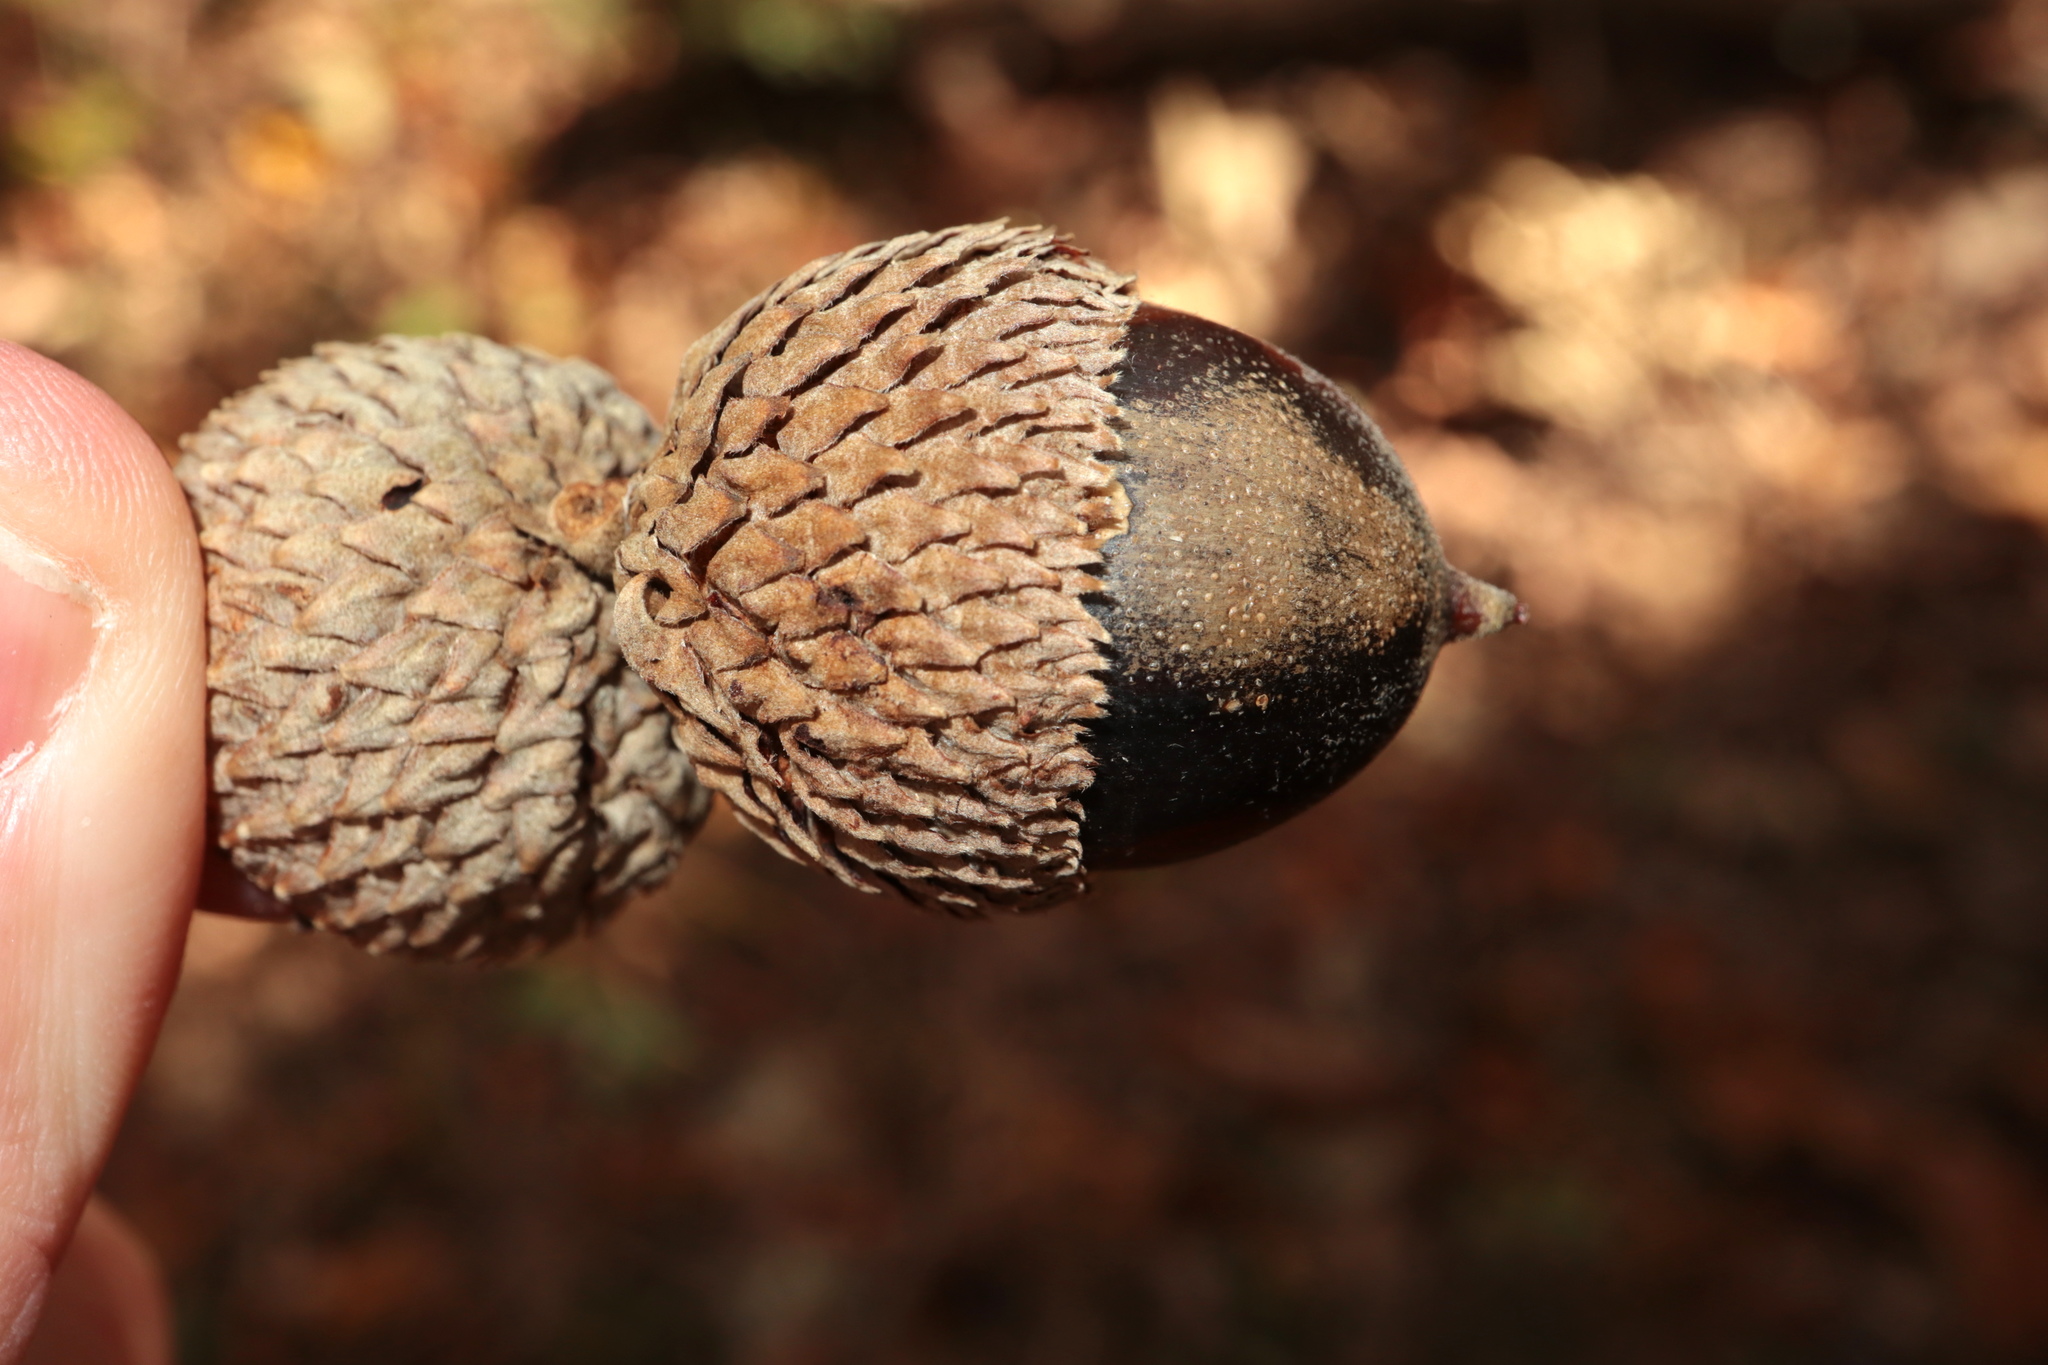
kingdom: Plantae
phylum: Tracheophyta
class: Magnoliopsida
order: Fagales
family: Fagaceae
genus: Quercus
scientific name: Quercus michauxii
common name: Swamp chestnut oak
